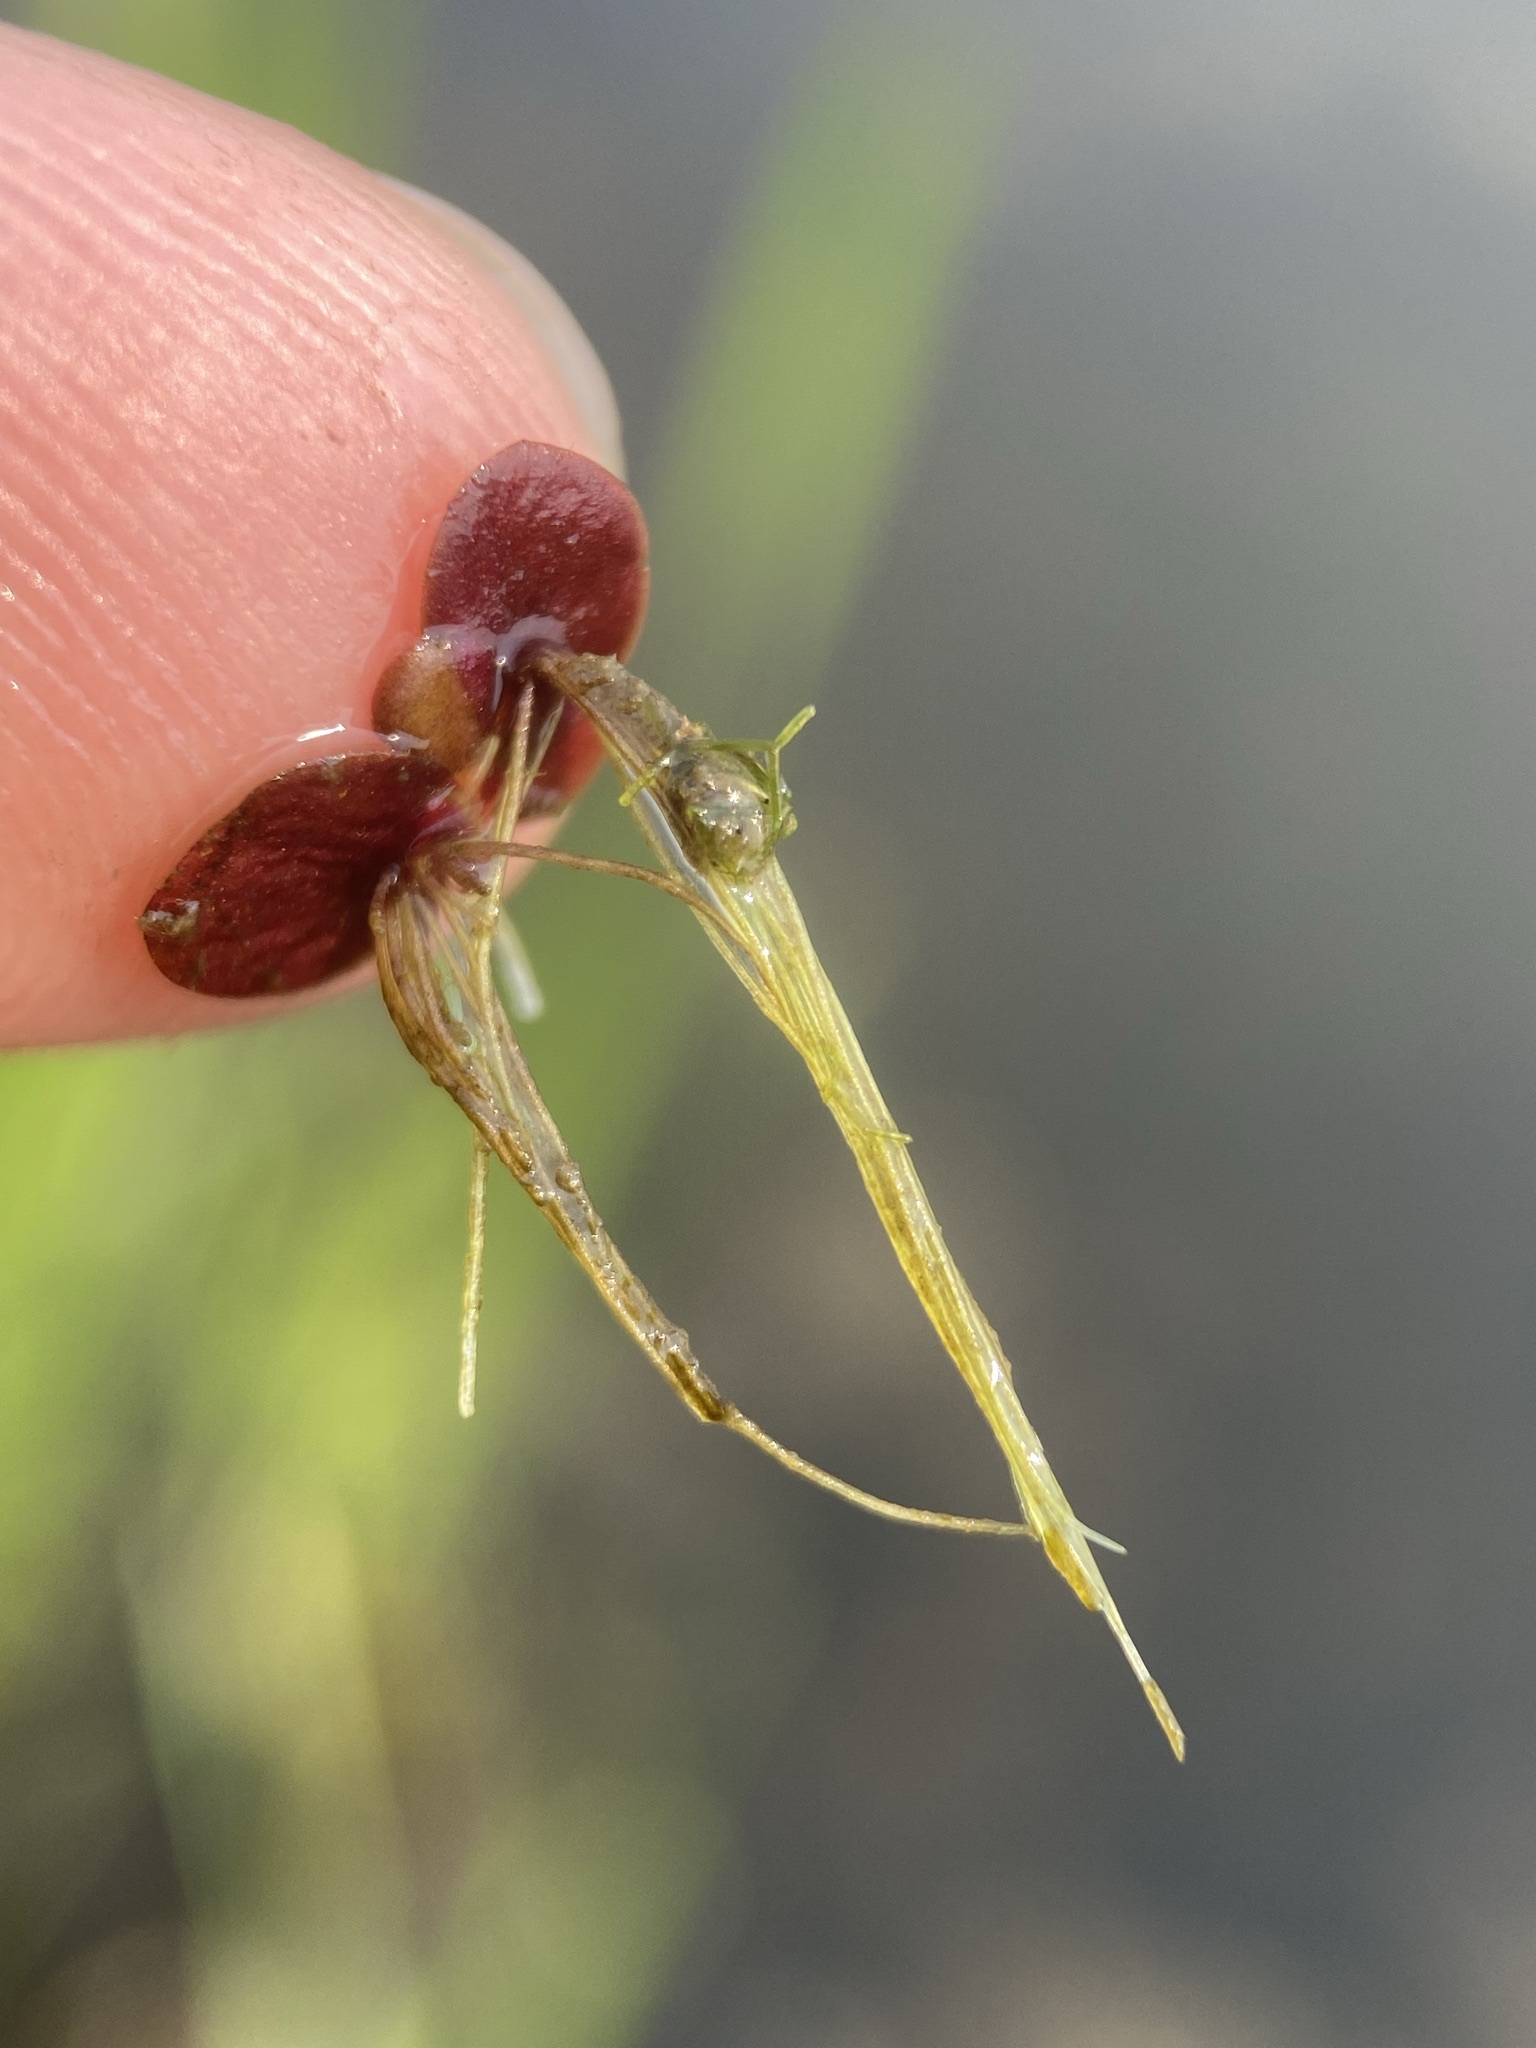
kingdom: Plantae
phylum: Tracheophyta
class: Liliopsida
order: Alismatales
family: Araceae
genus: Spirodela
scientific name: Spirodela polyrhiza
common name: Great duckweed
